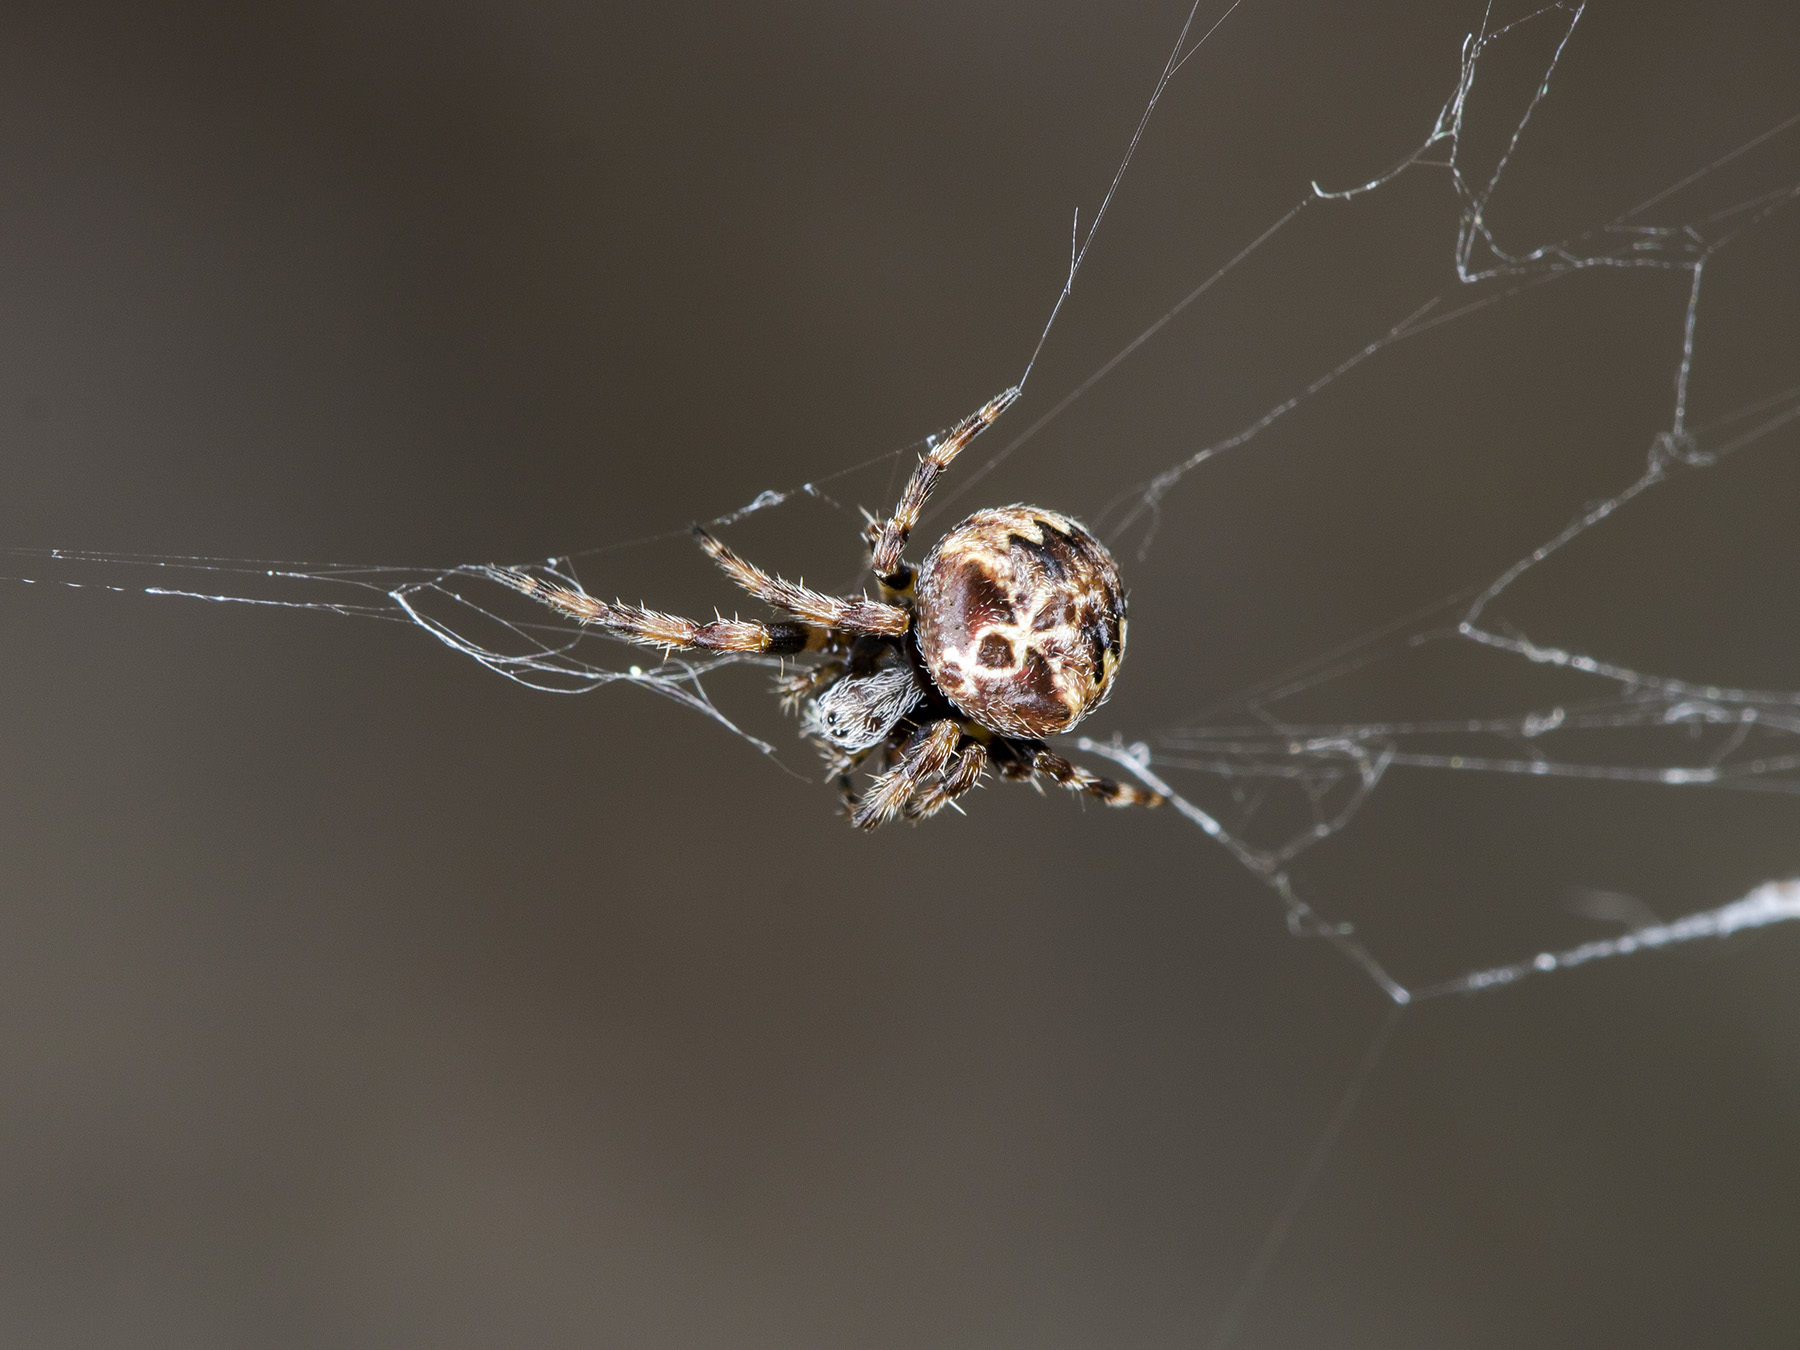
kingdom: Animalia
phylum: Arthropoda
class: Arachnida
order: Araneae
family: Araneidae
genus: Araneus
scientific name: Araneus grossus
